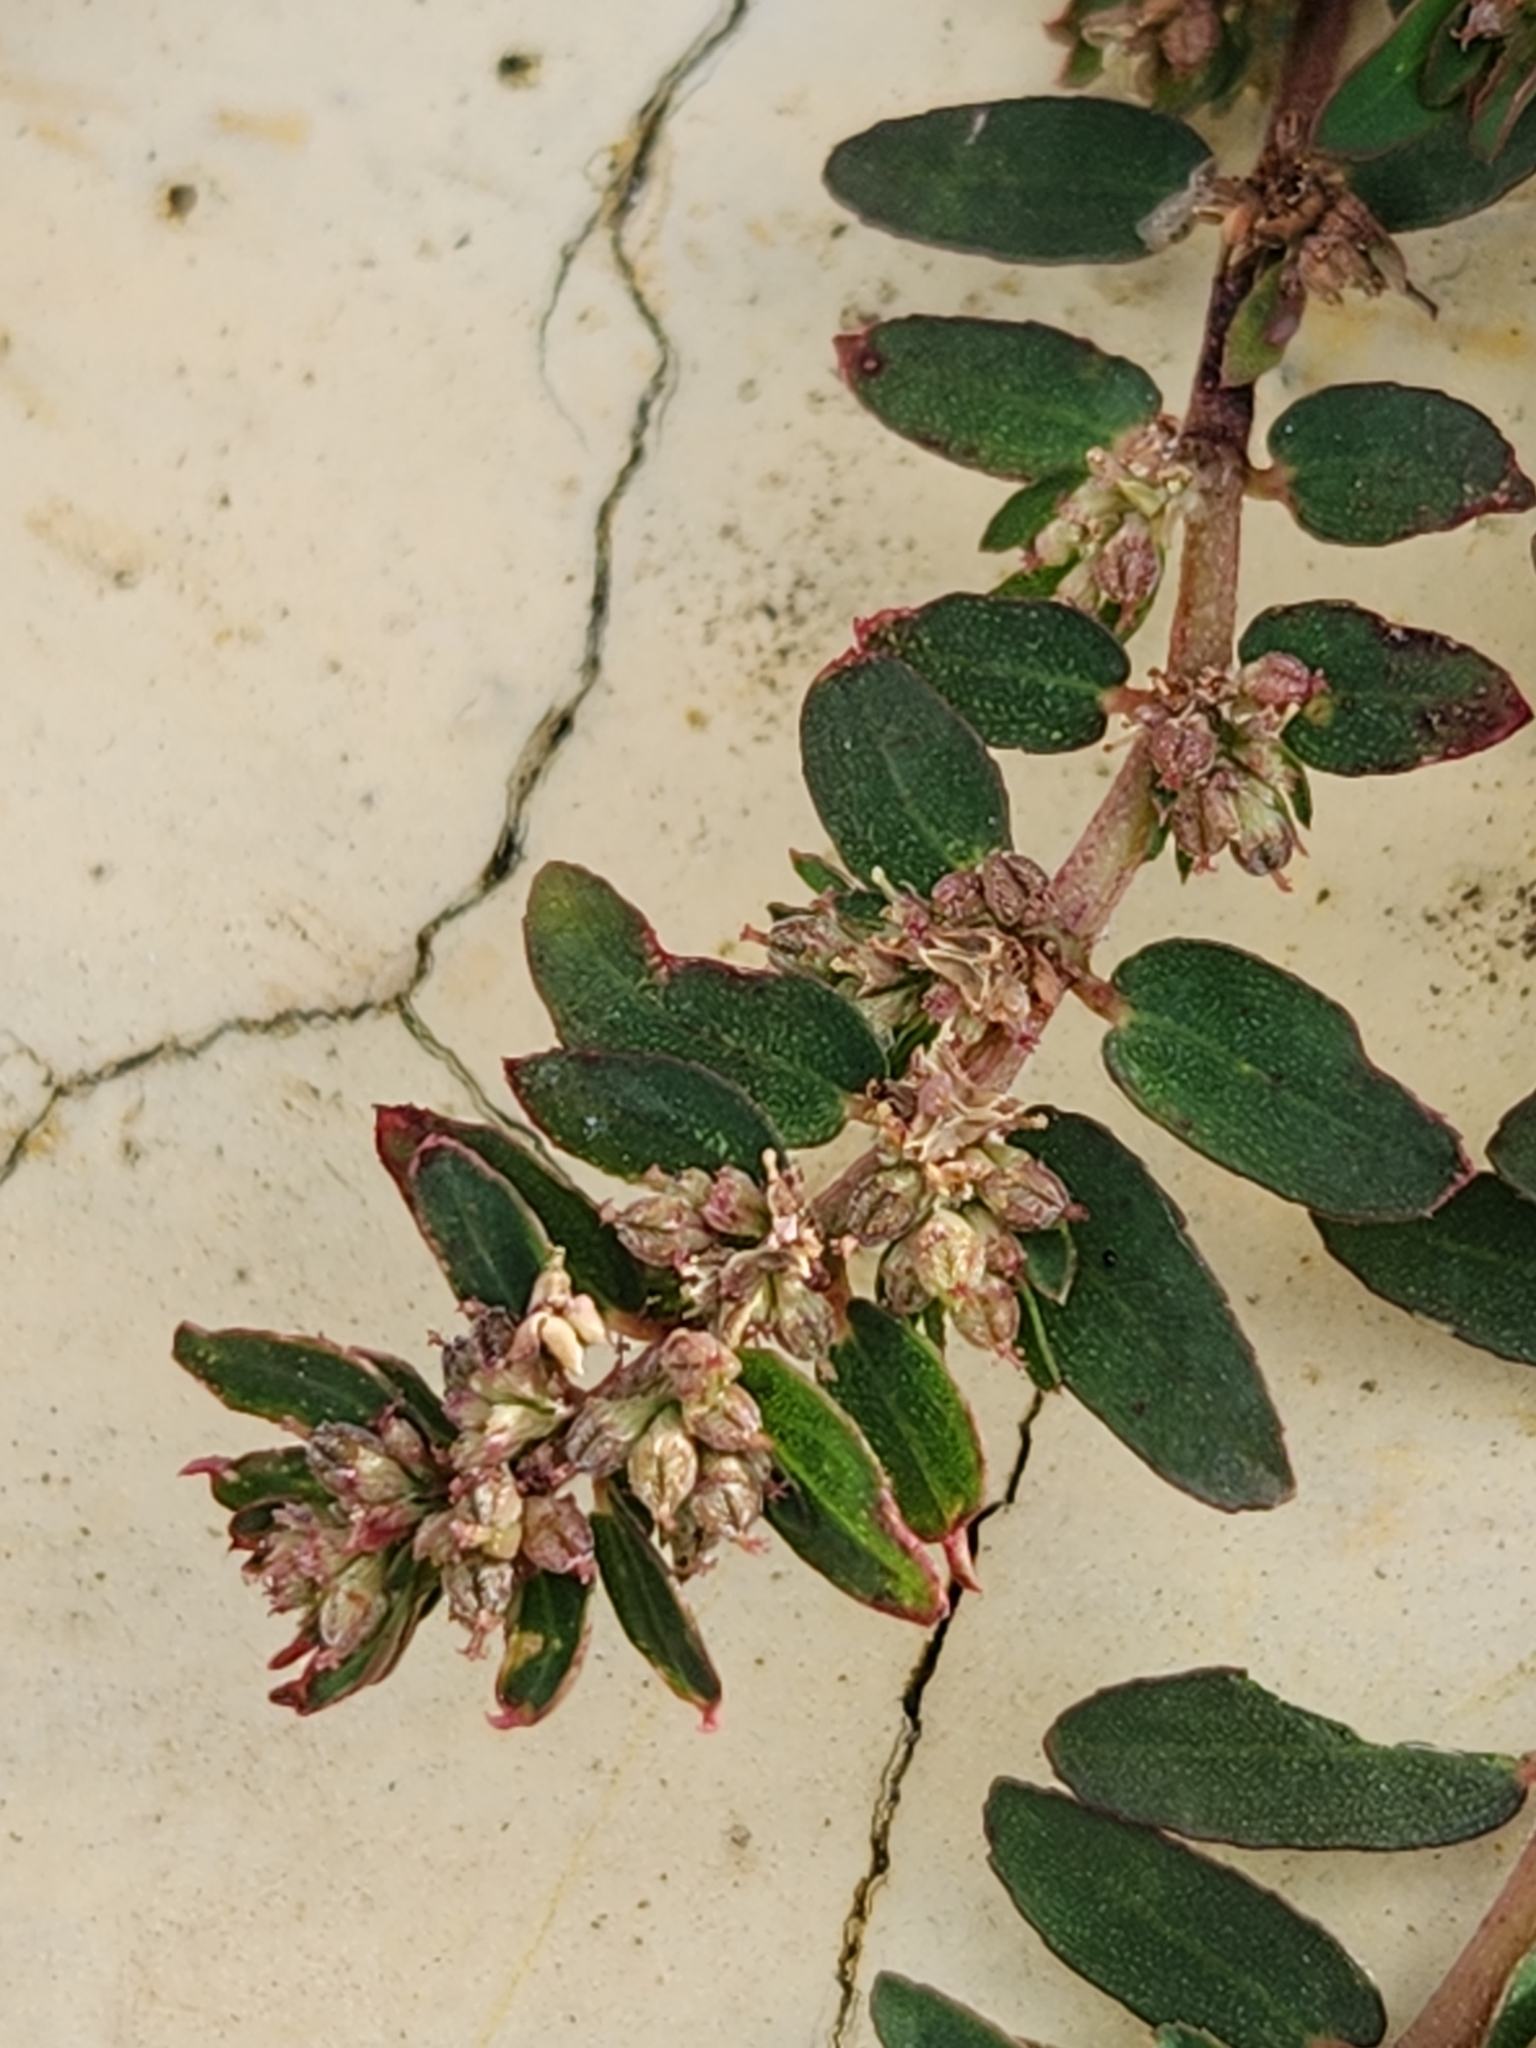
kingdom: Plantae
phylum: Tracheophyta
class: Magnoliopsida
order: Malpighiales
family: Euphorbiaceae
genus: Euphorbia
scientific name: Euphorbia thymifolia
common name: Gulf sandmat
